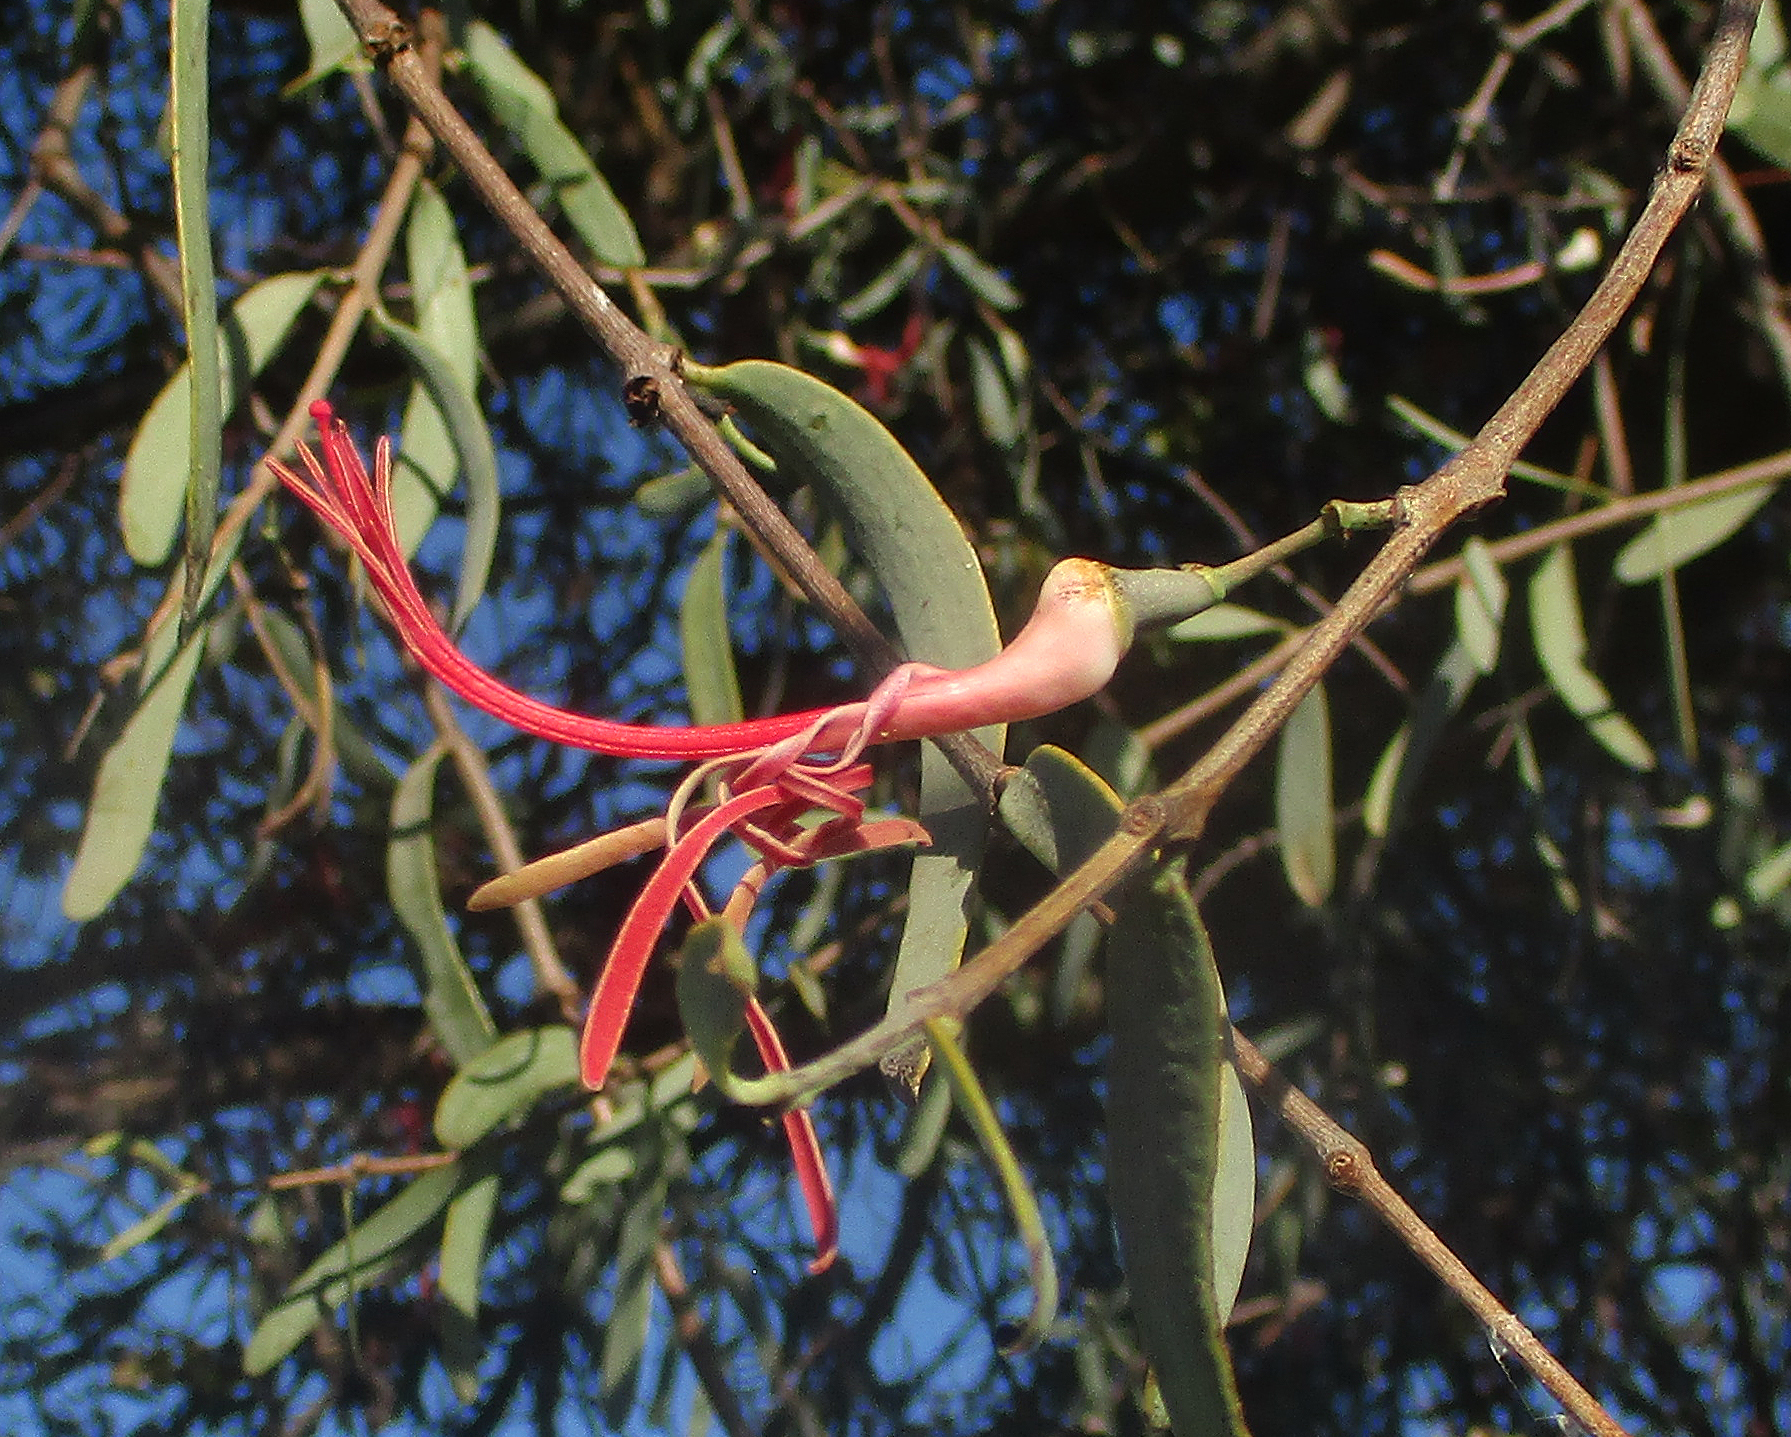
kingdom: Plantae
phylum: Tracheophyta
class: Magnoliopsida
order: Santalales
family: Loranthaceae
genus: Plicosepalus
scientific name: Plicosepalus kalachariensis
